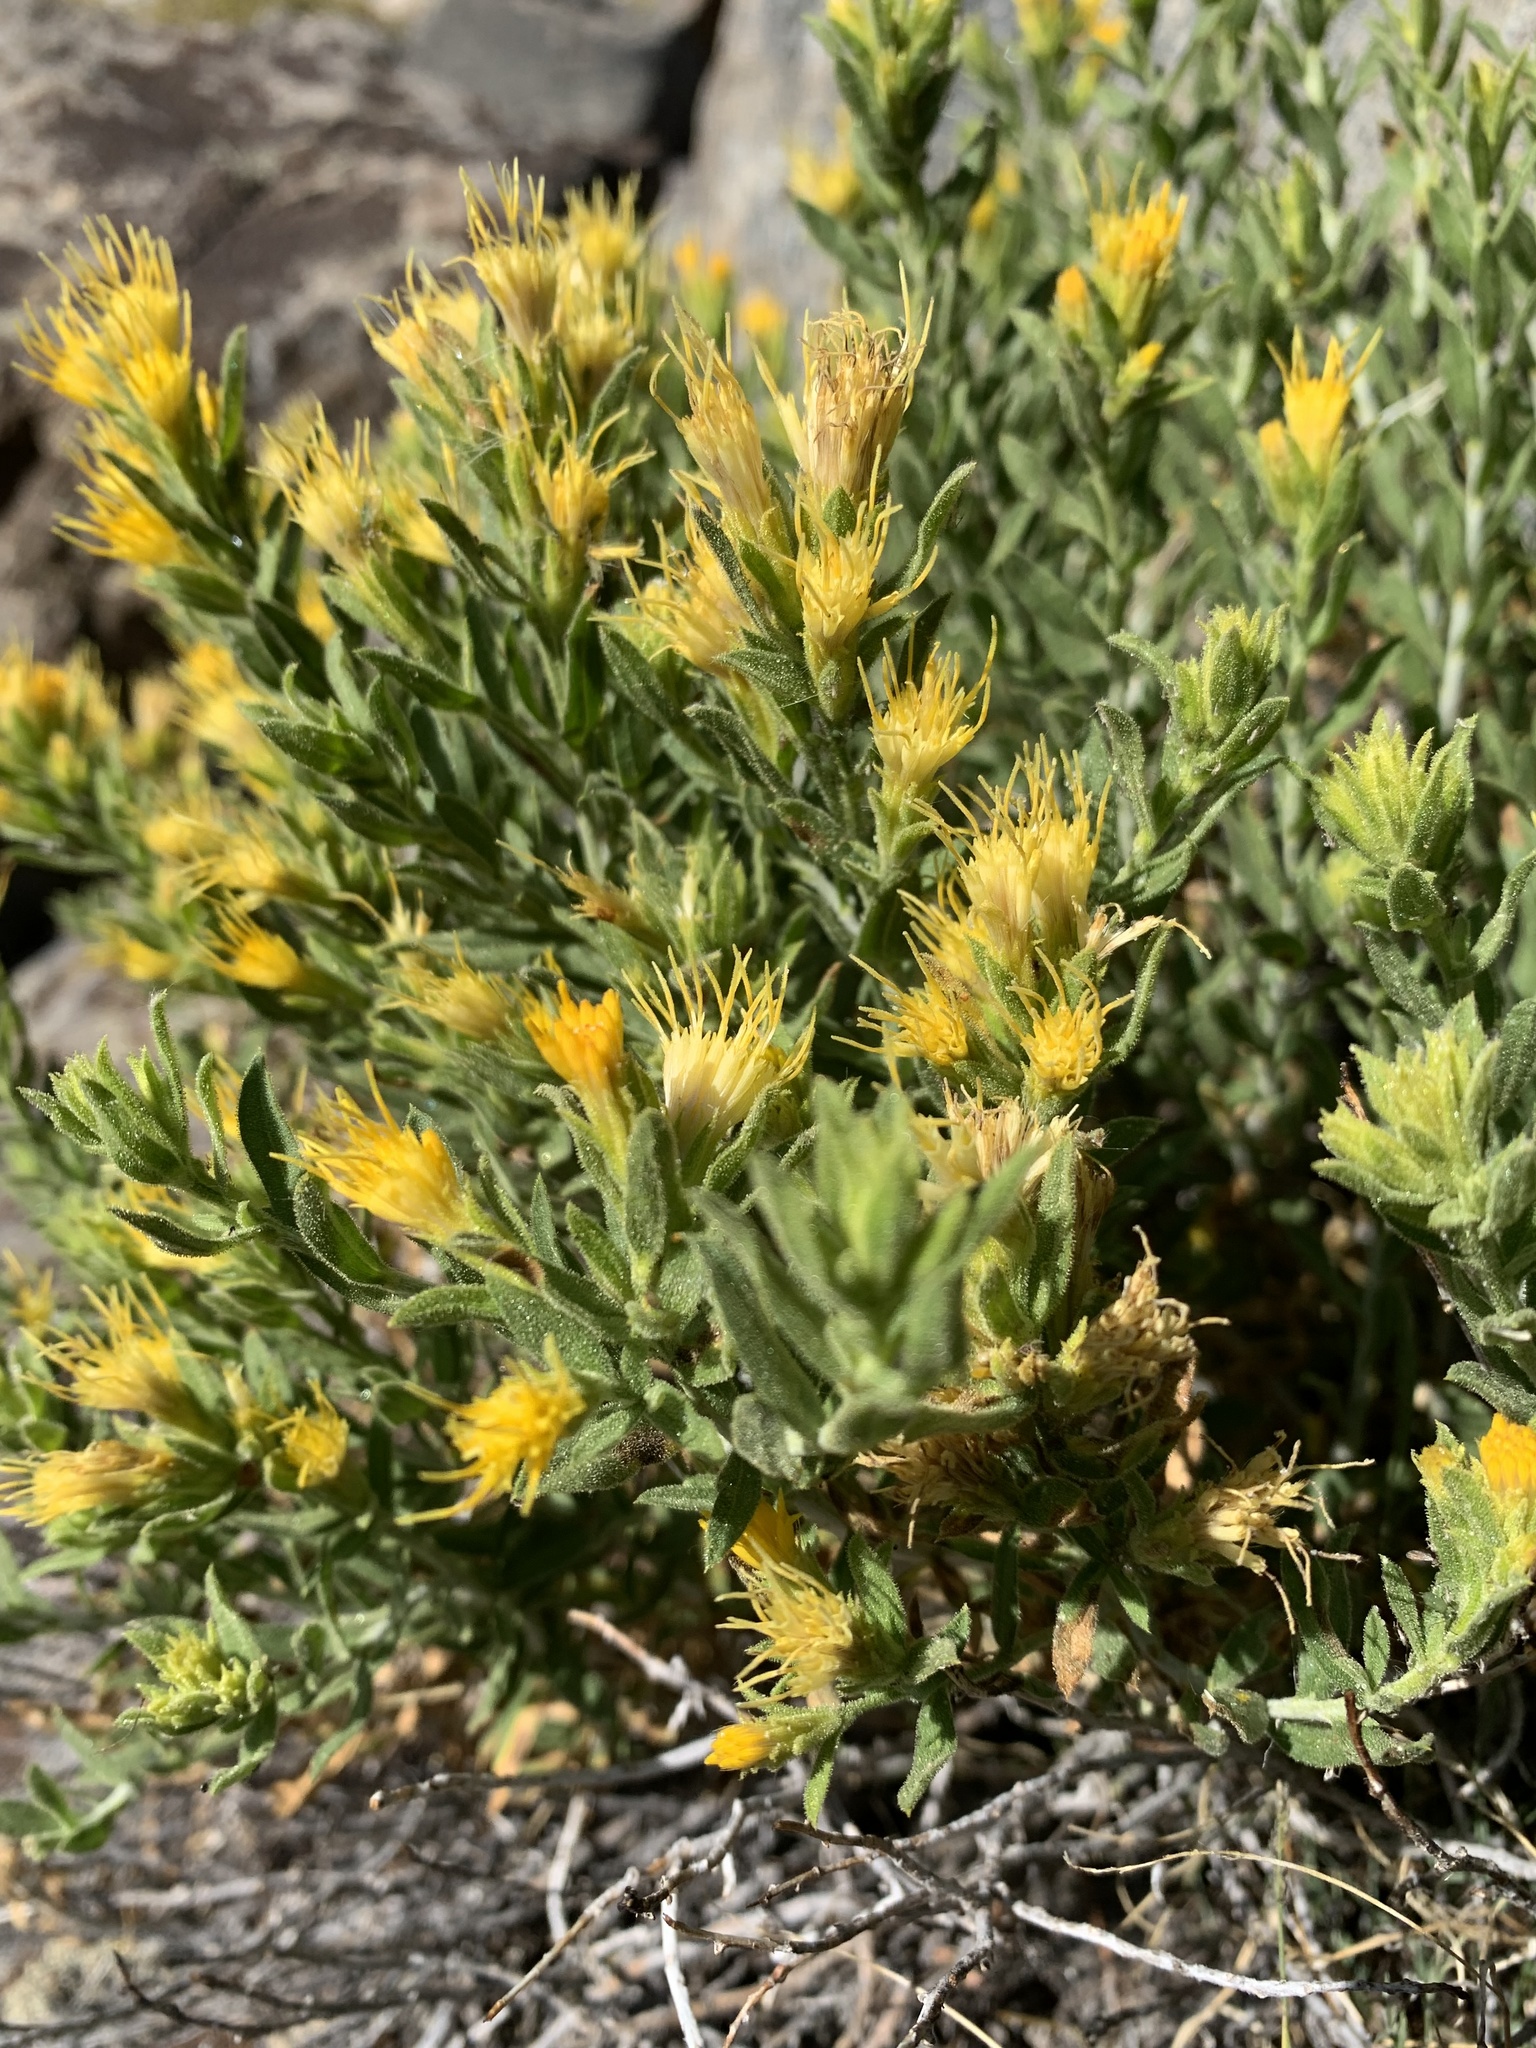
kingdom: Plantae
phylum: Tracheophyta
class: Magnoliopsida
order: Asterales
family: Asteraceae
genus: Ericameria
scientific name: Ericameria discoidea
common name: Sharp-scale goldenweed
